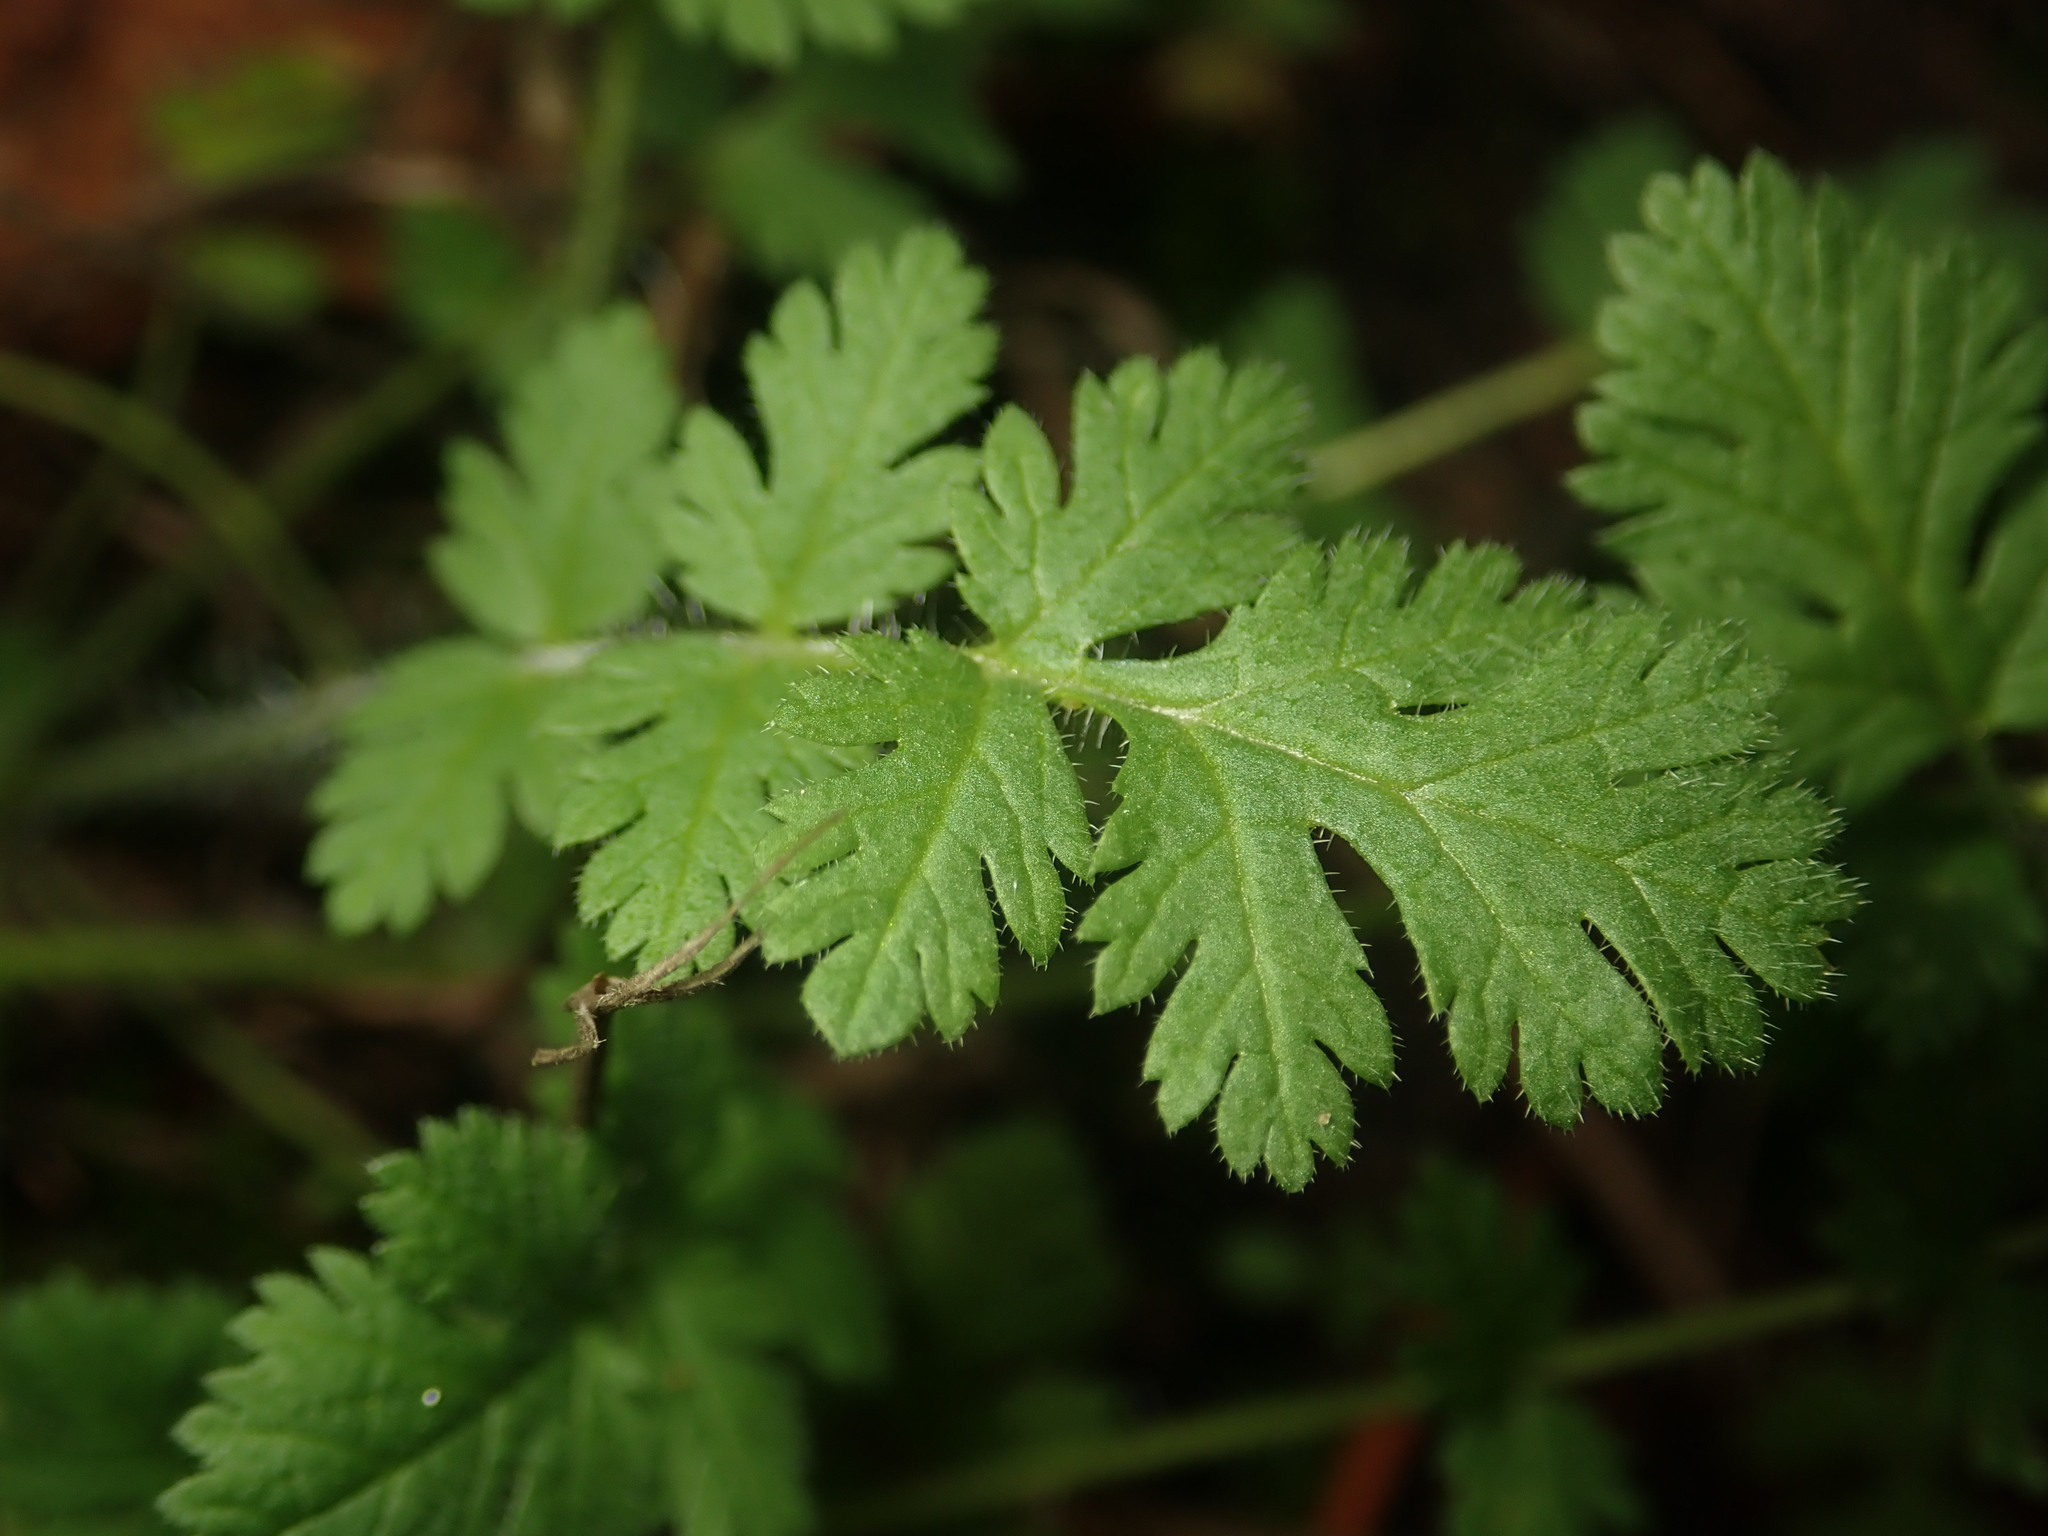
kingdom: Plantae
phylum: Tracheophyta
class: Magnoliopsida
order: Geraniales
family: Geraniaceae
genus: Erodium
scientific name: Erodium cicutarium
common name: Common stork's-bill
